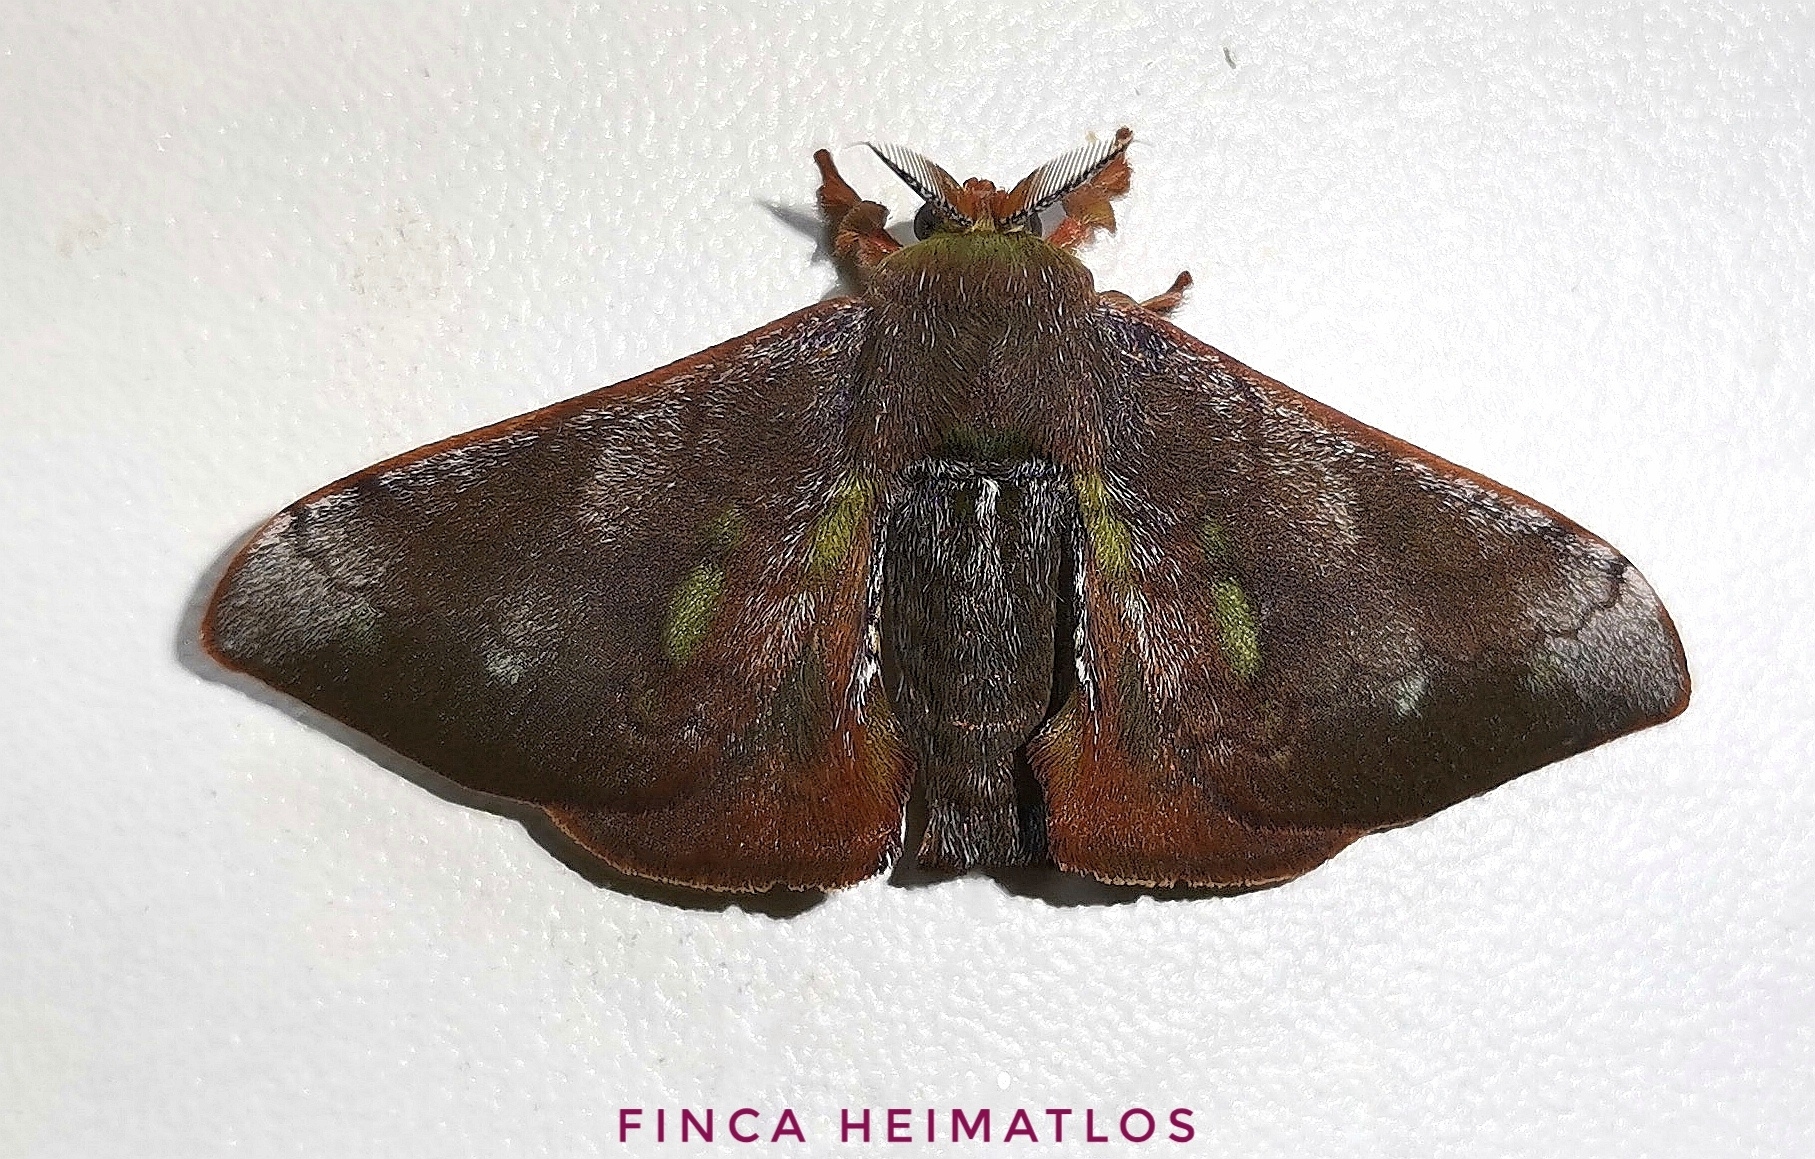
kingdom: Animalia
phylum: Arthropoda
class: Insecta
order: Lepidoptera
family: Bombycidae
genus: Epia
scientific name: Epia casnonia
